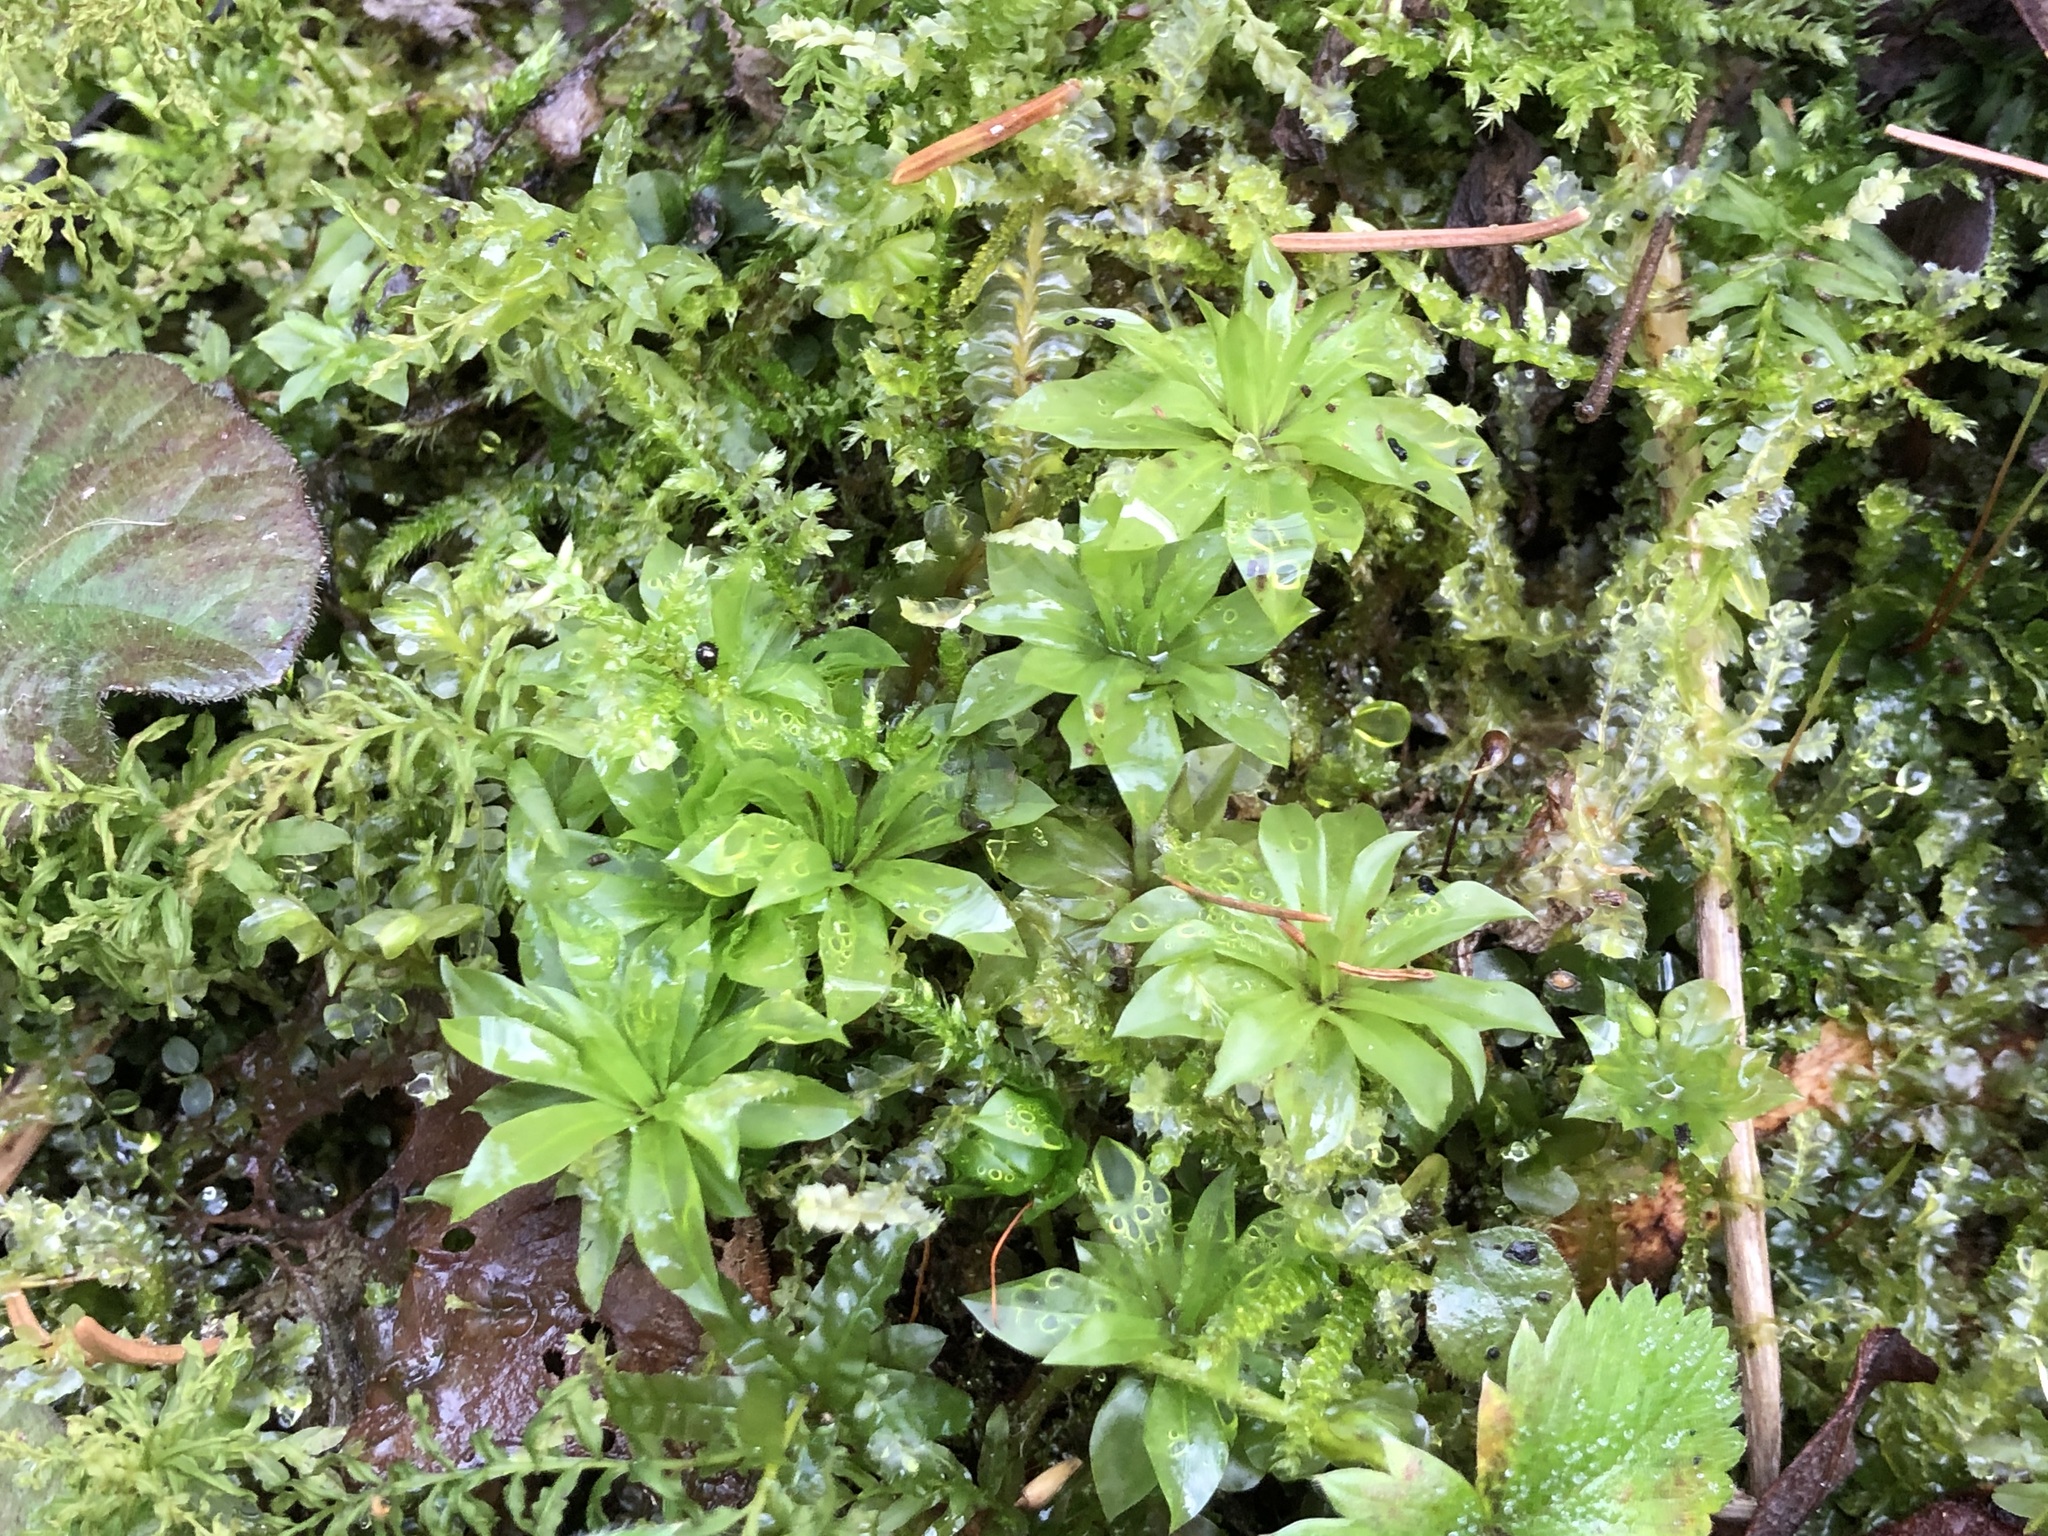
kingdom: Plantae
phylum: Bryophyta
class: Bryopsida
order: Bryales
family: Bryaceae
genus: Rhodobryum
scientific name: Rhodobryum roseum
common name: Rose-moss
